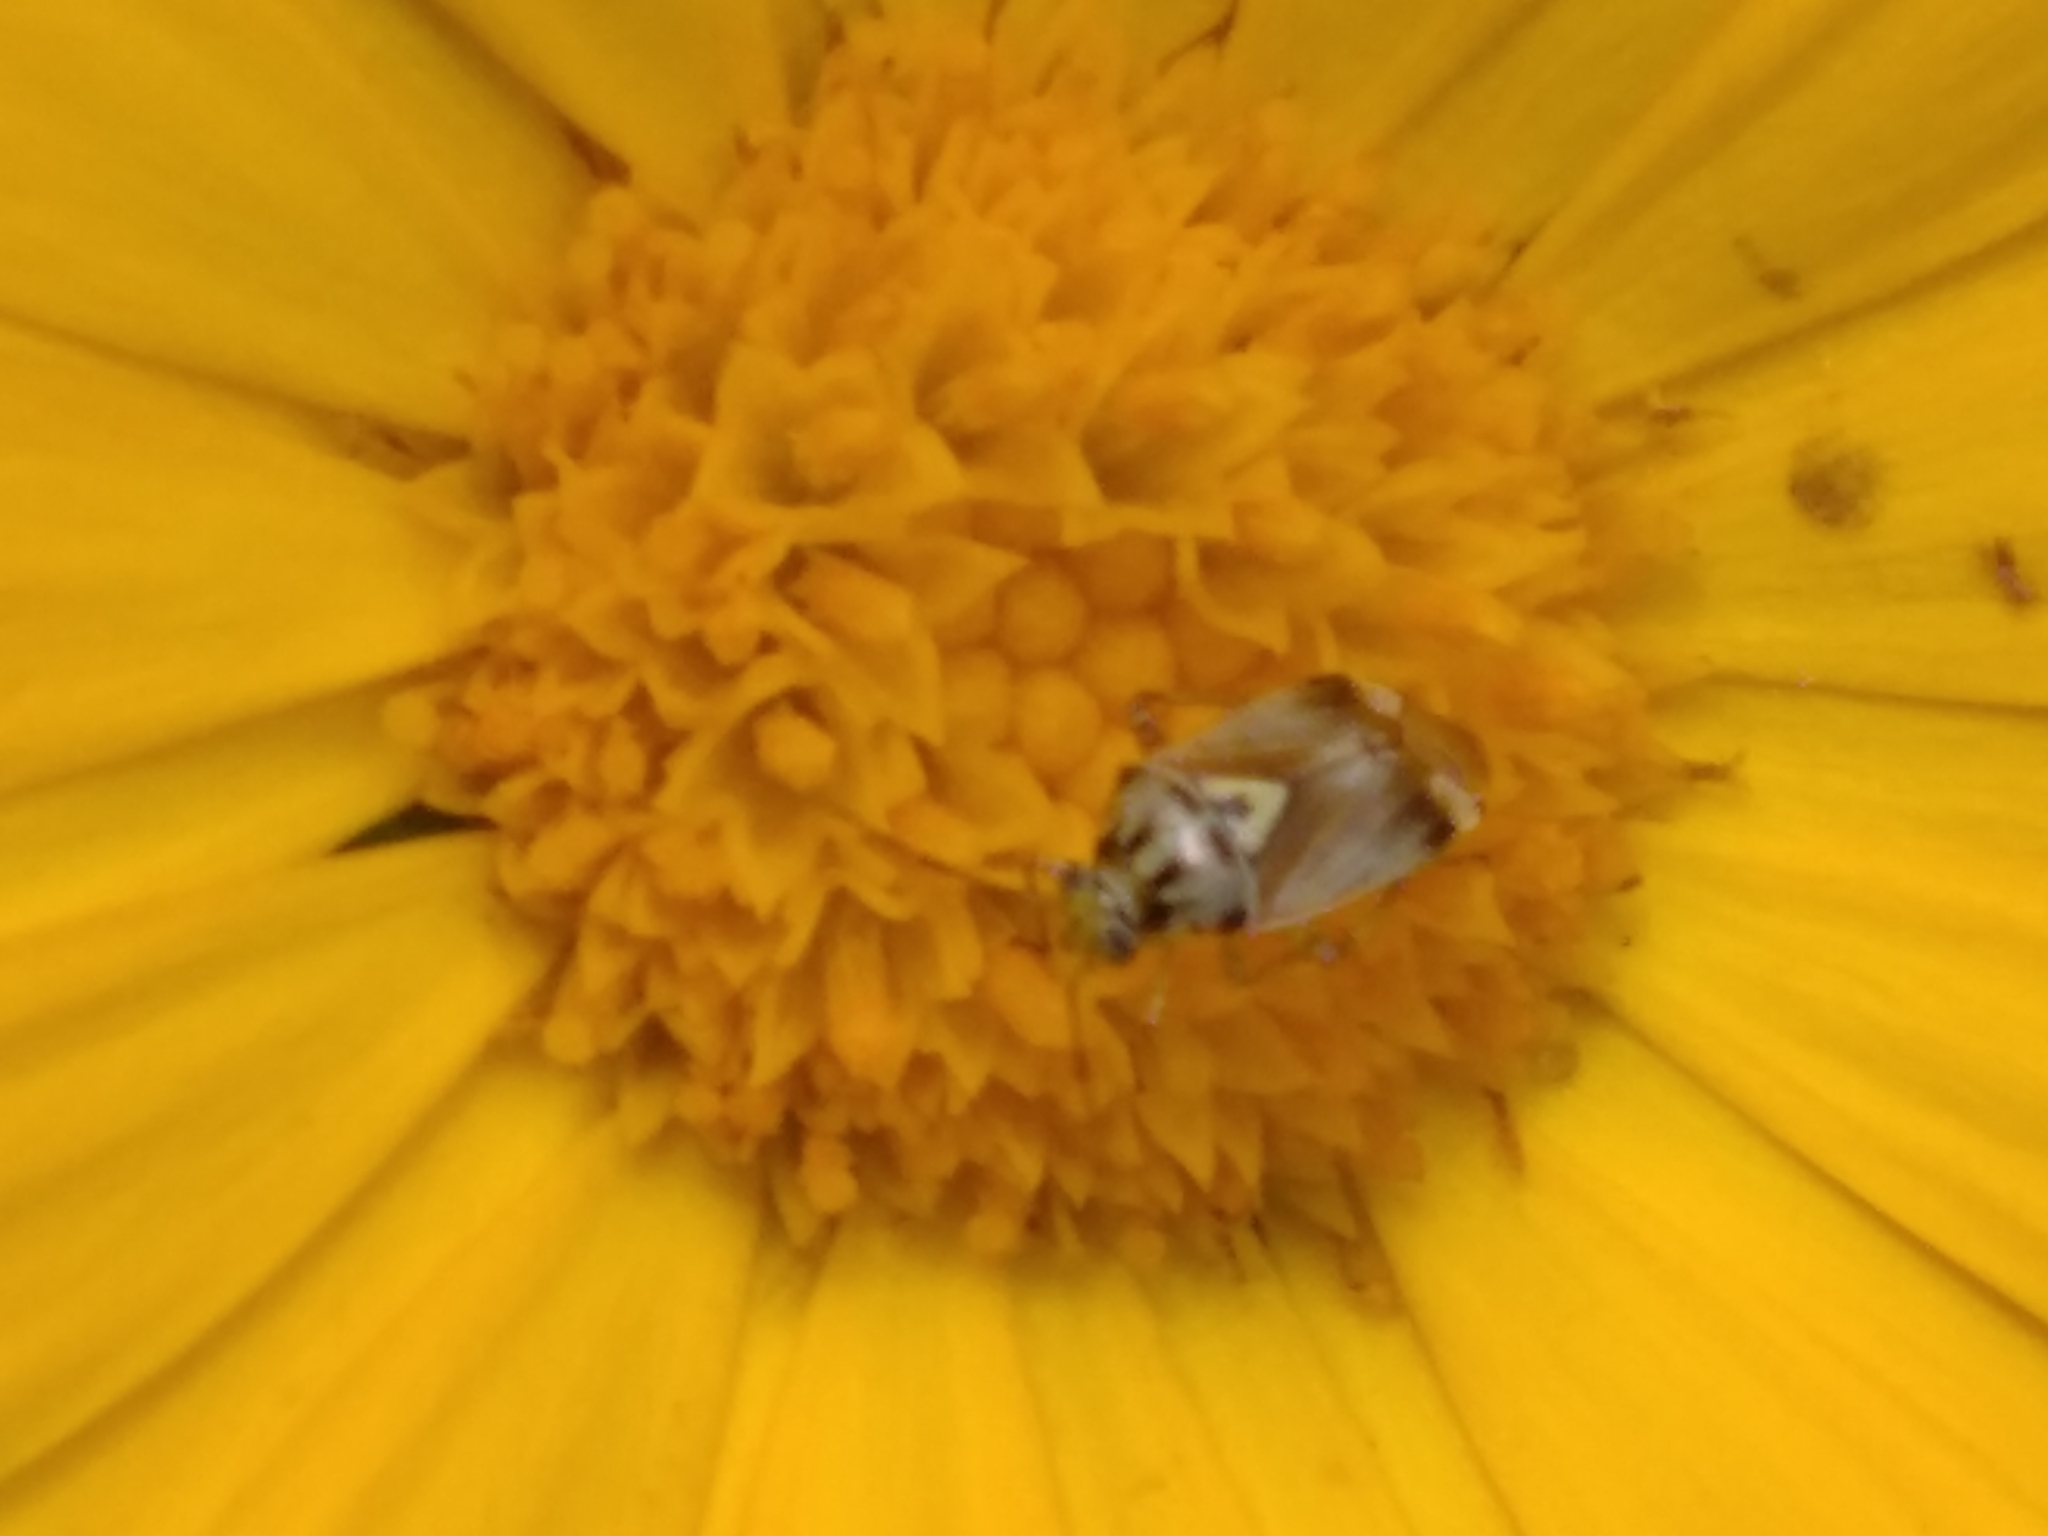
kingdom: Animalia
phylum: Arthropoda
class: Insecta
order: Hemiptera
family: Miridae
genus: Lygus
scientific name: Lygus pratensis
